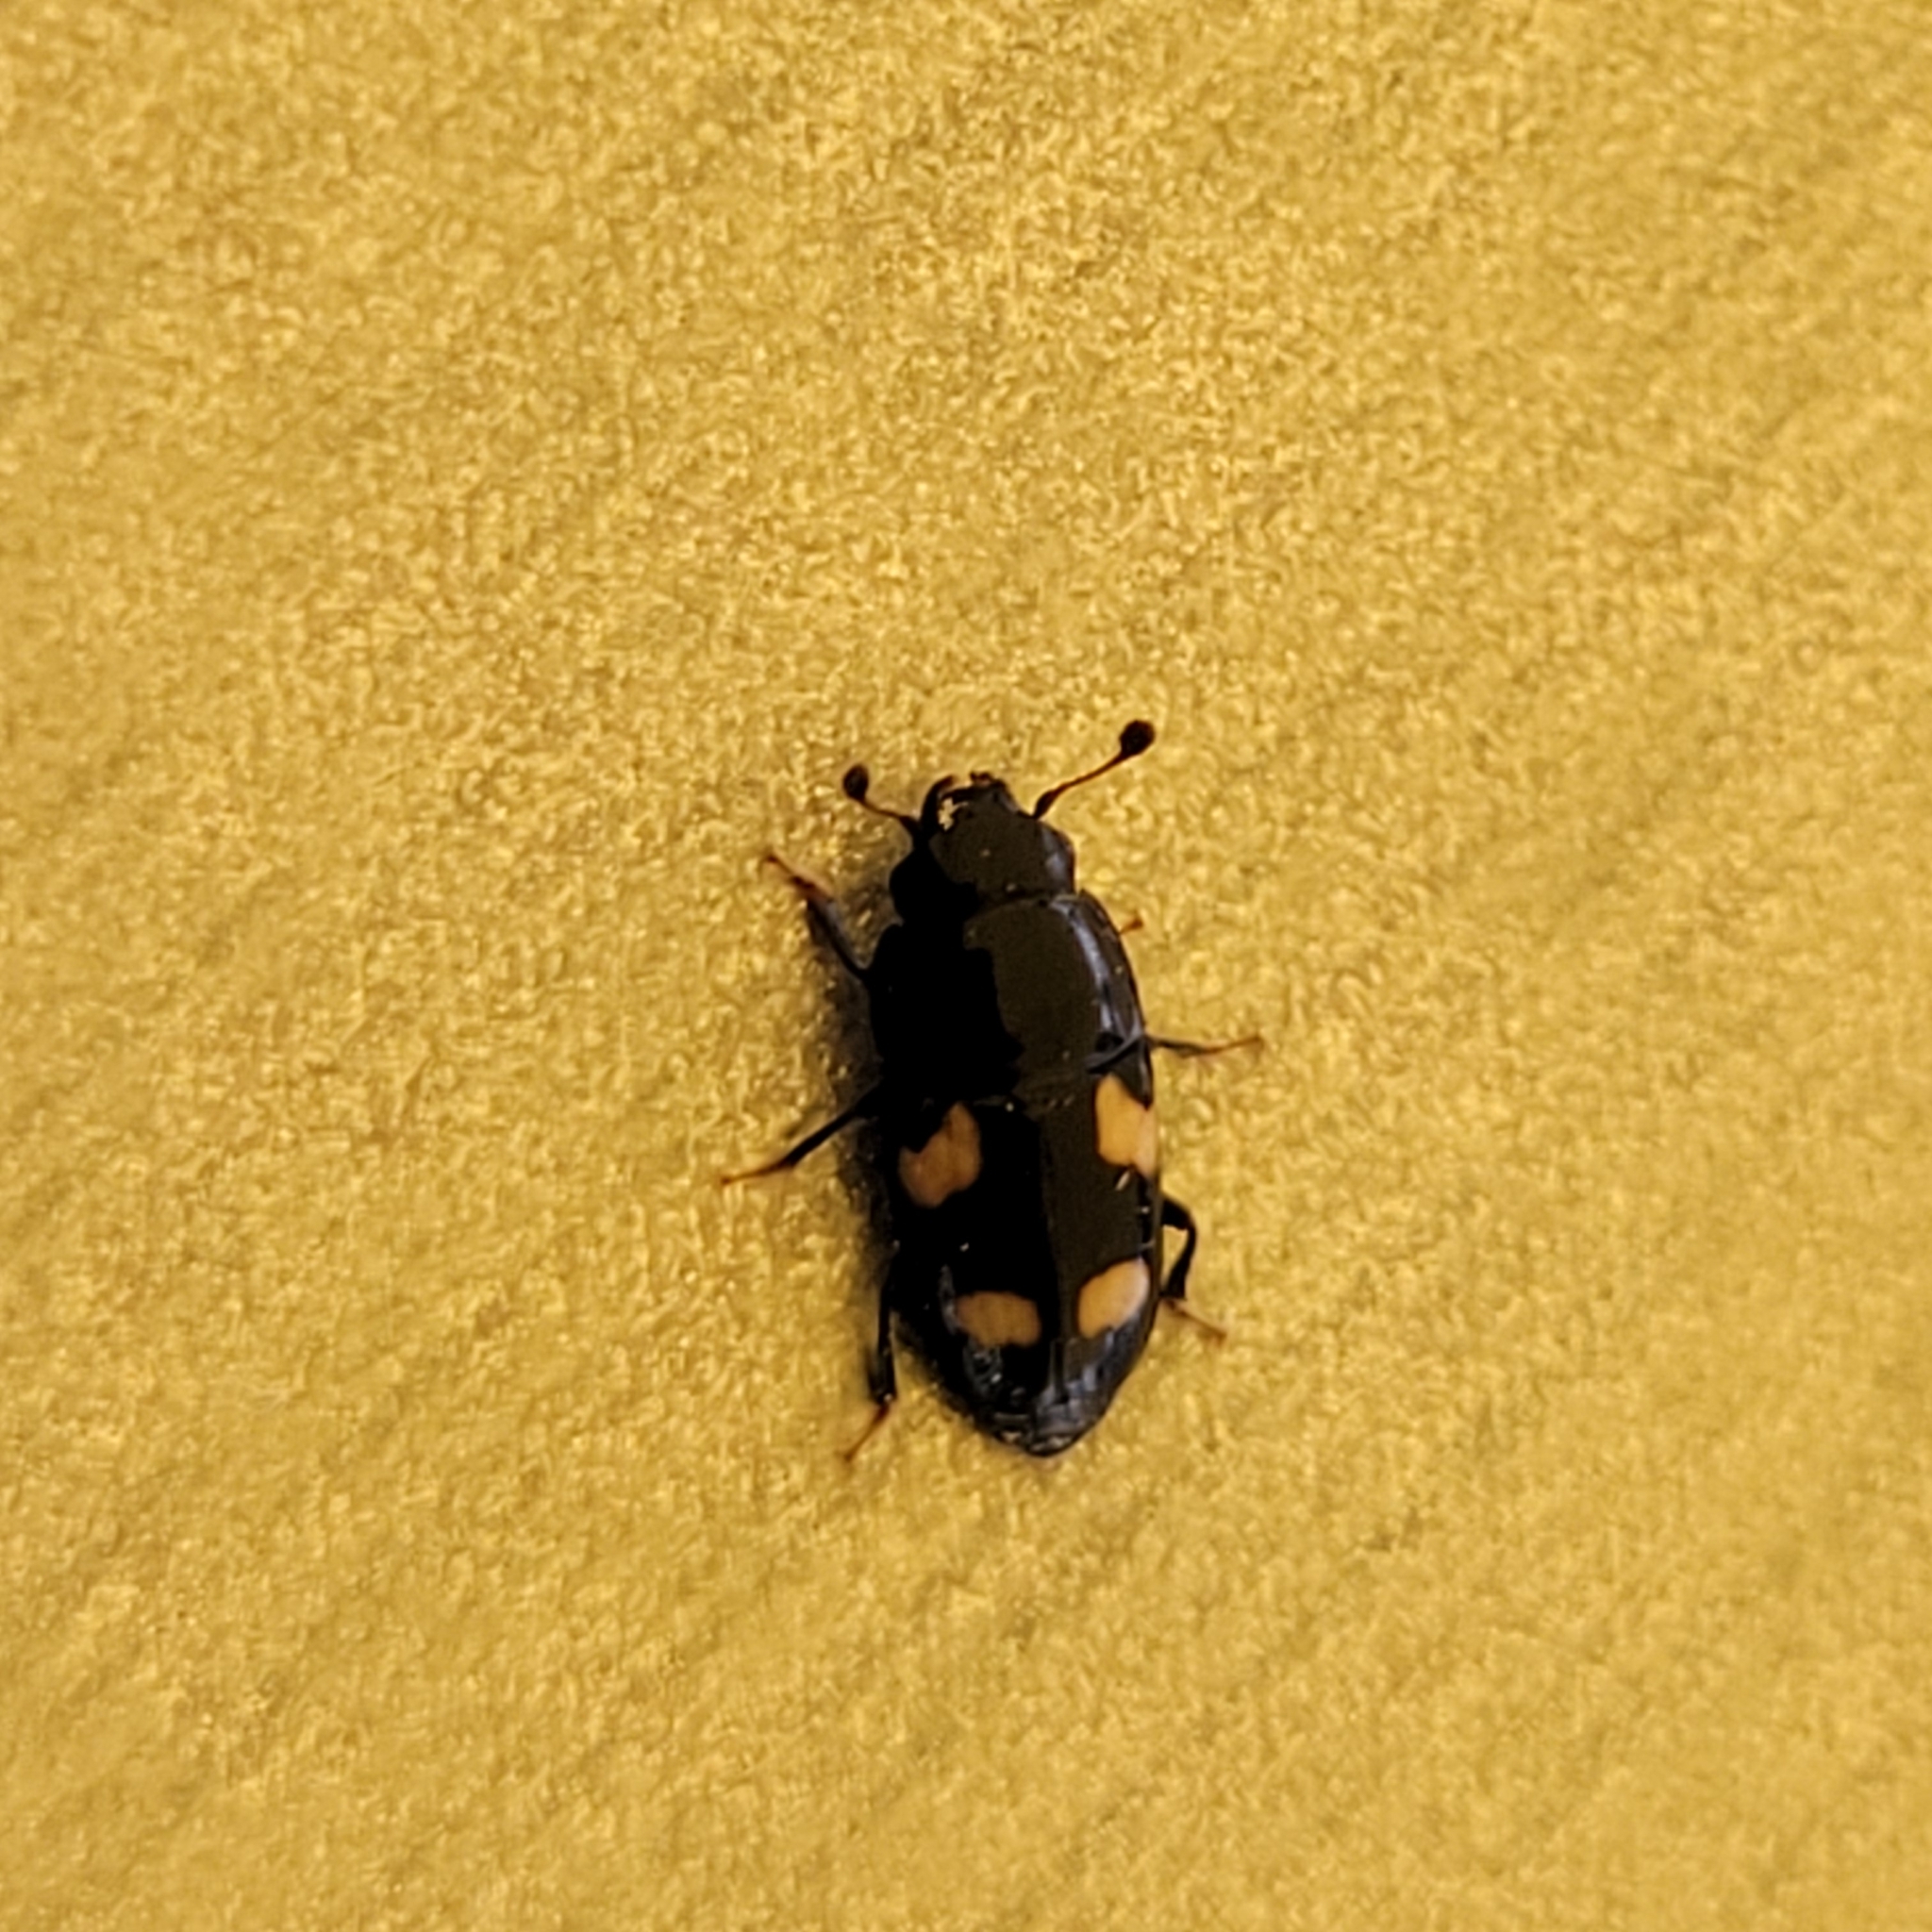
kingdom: Animalia
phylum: Arthropoda
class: Insecta
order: Coleoptera
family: Nitidulidae
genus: Glischrochilus
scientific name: Glischrochilus quadrisignatus
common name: Picnic beetle
